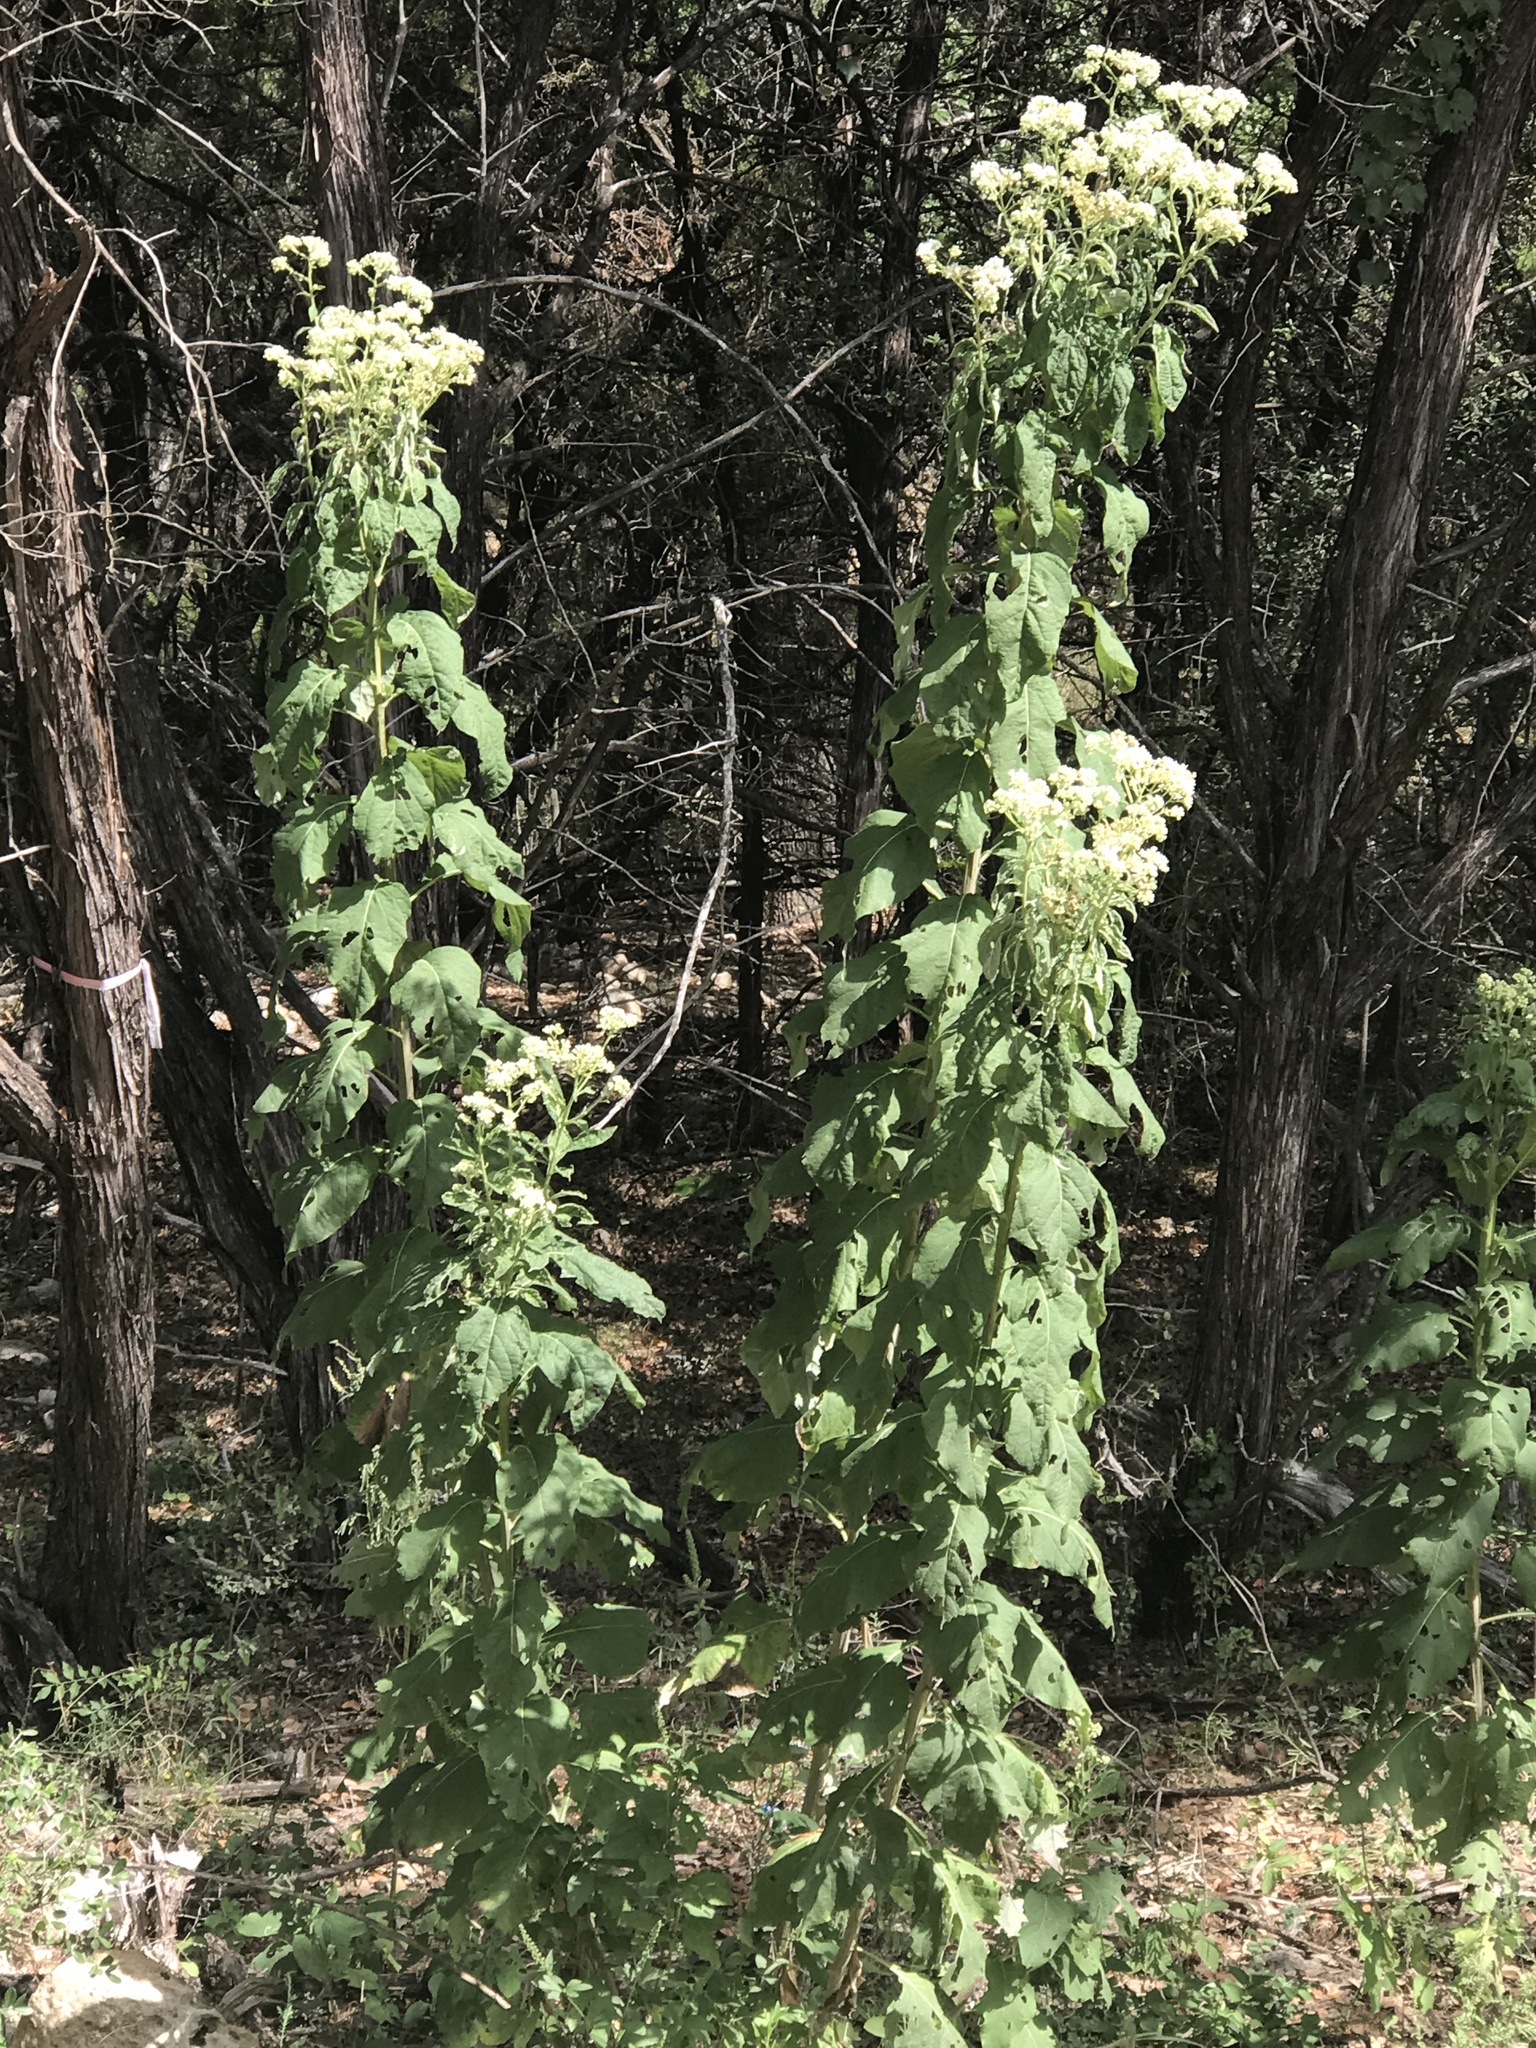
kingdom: Plantae
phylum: Tracheophyta
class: Magnoliopsida
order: Asterales
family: Asteraceae
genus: Verbesina
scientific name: Verbesina virginica
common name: Frostweed
